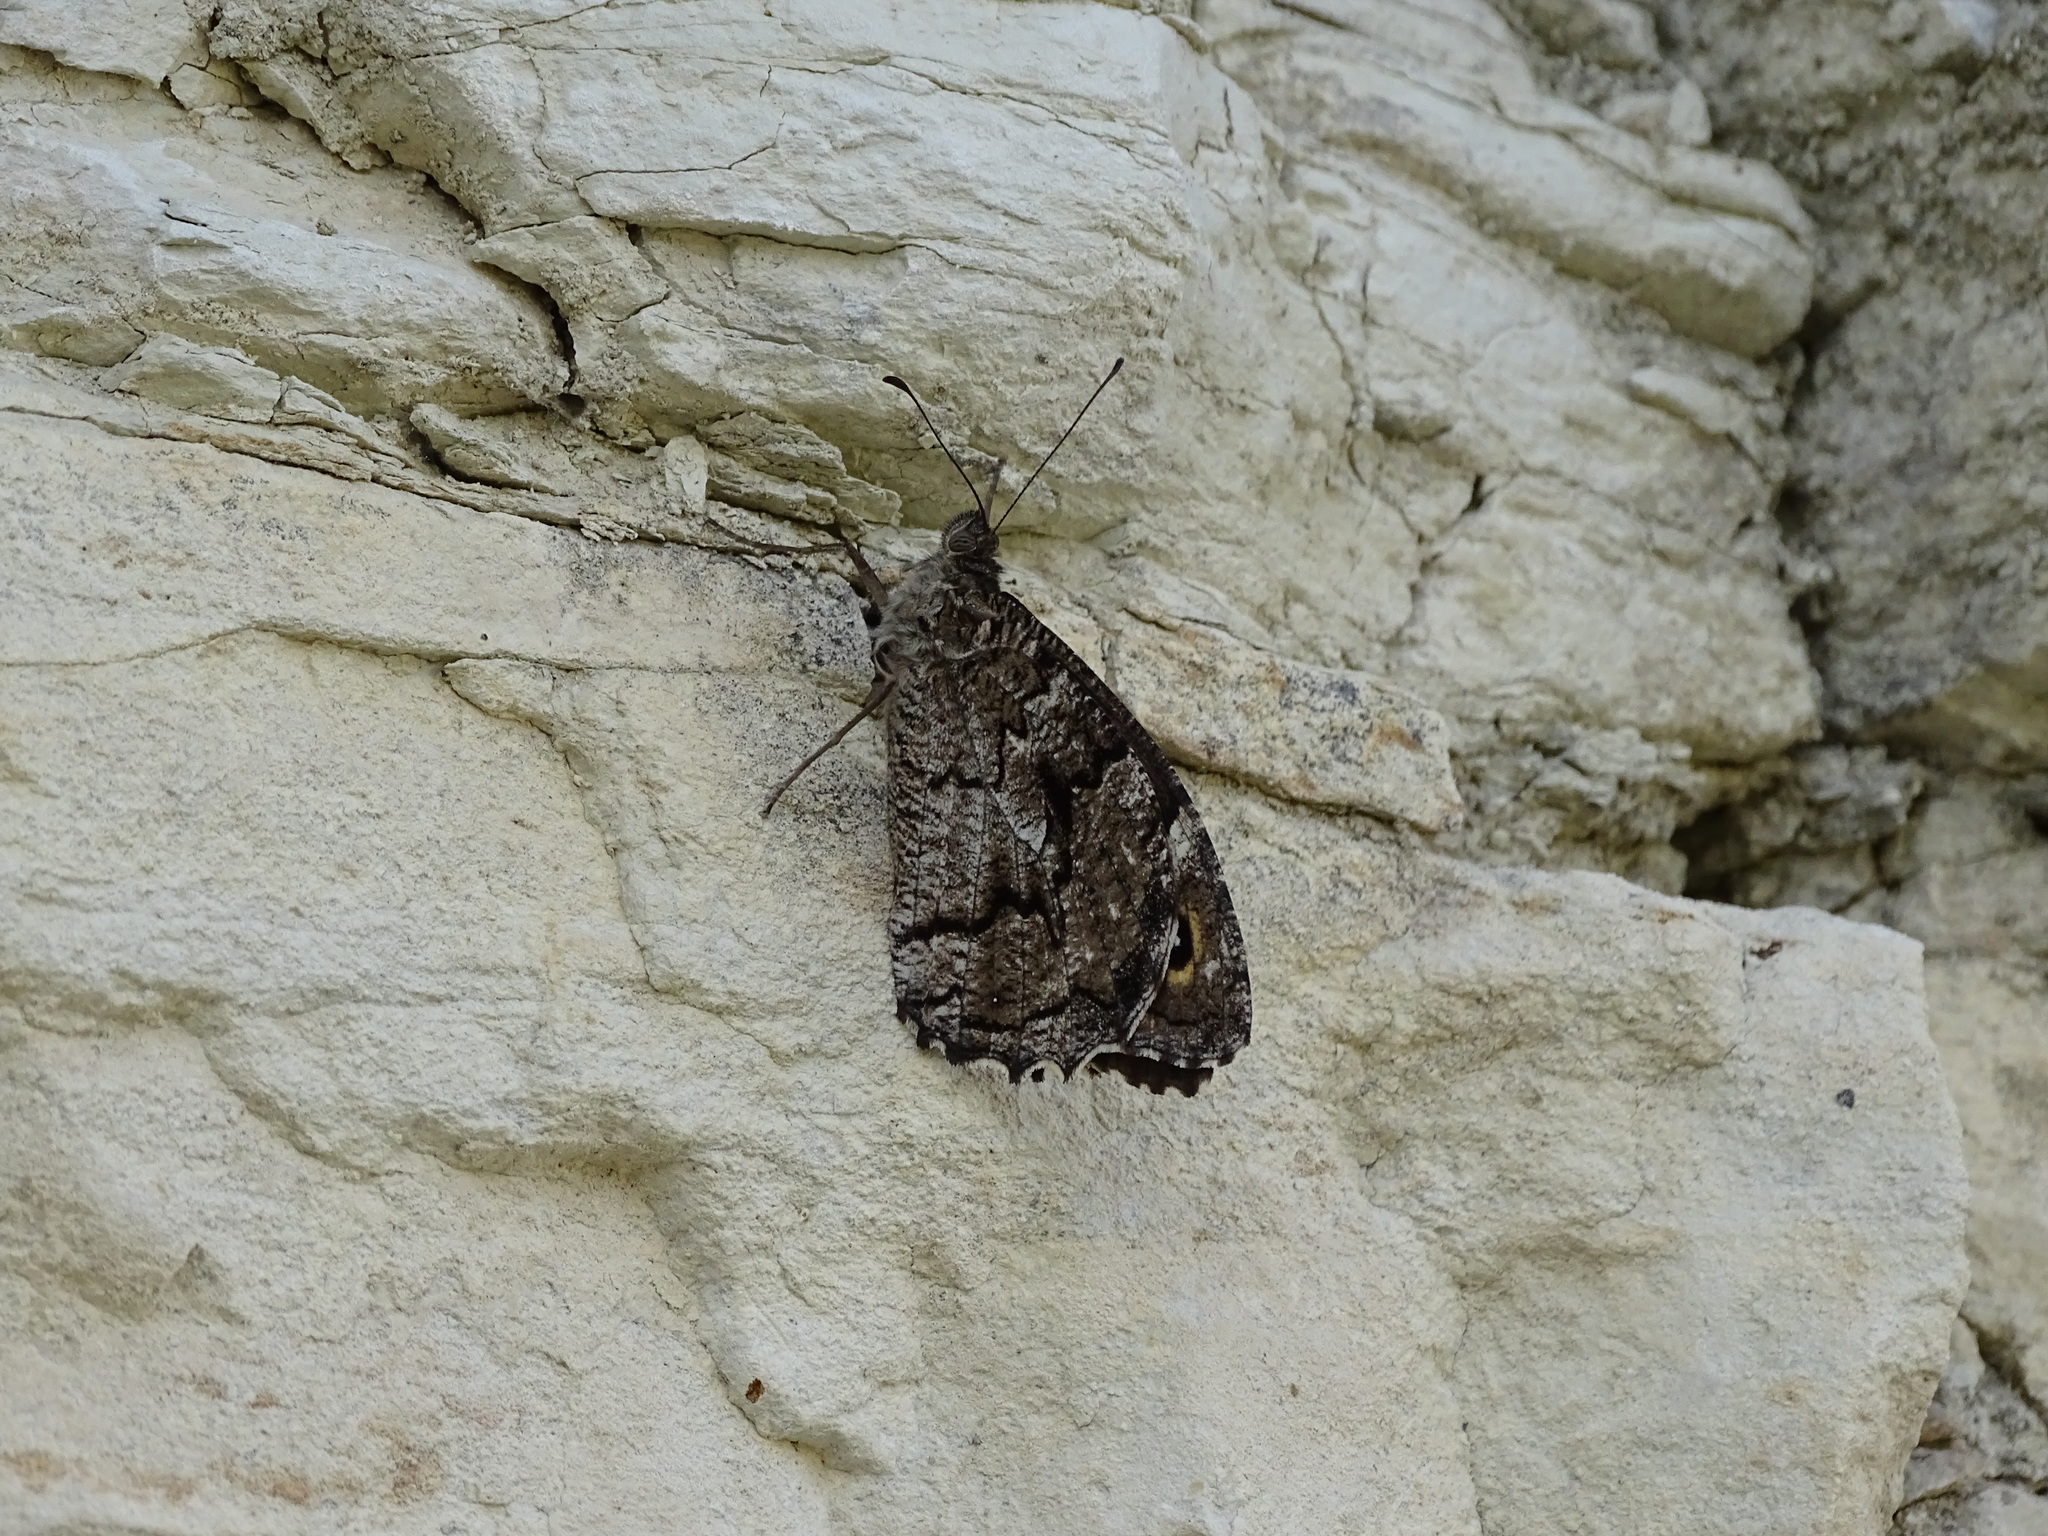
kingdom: Animalia
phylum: Arthropoda
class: Insecta
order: Lepidoptera
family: Nymphalidae
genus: Hipparchia
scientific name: Hipparchia syriaca
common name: Eastern rock grayling
